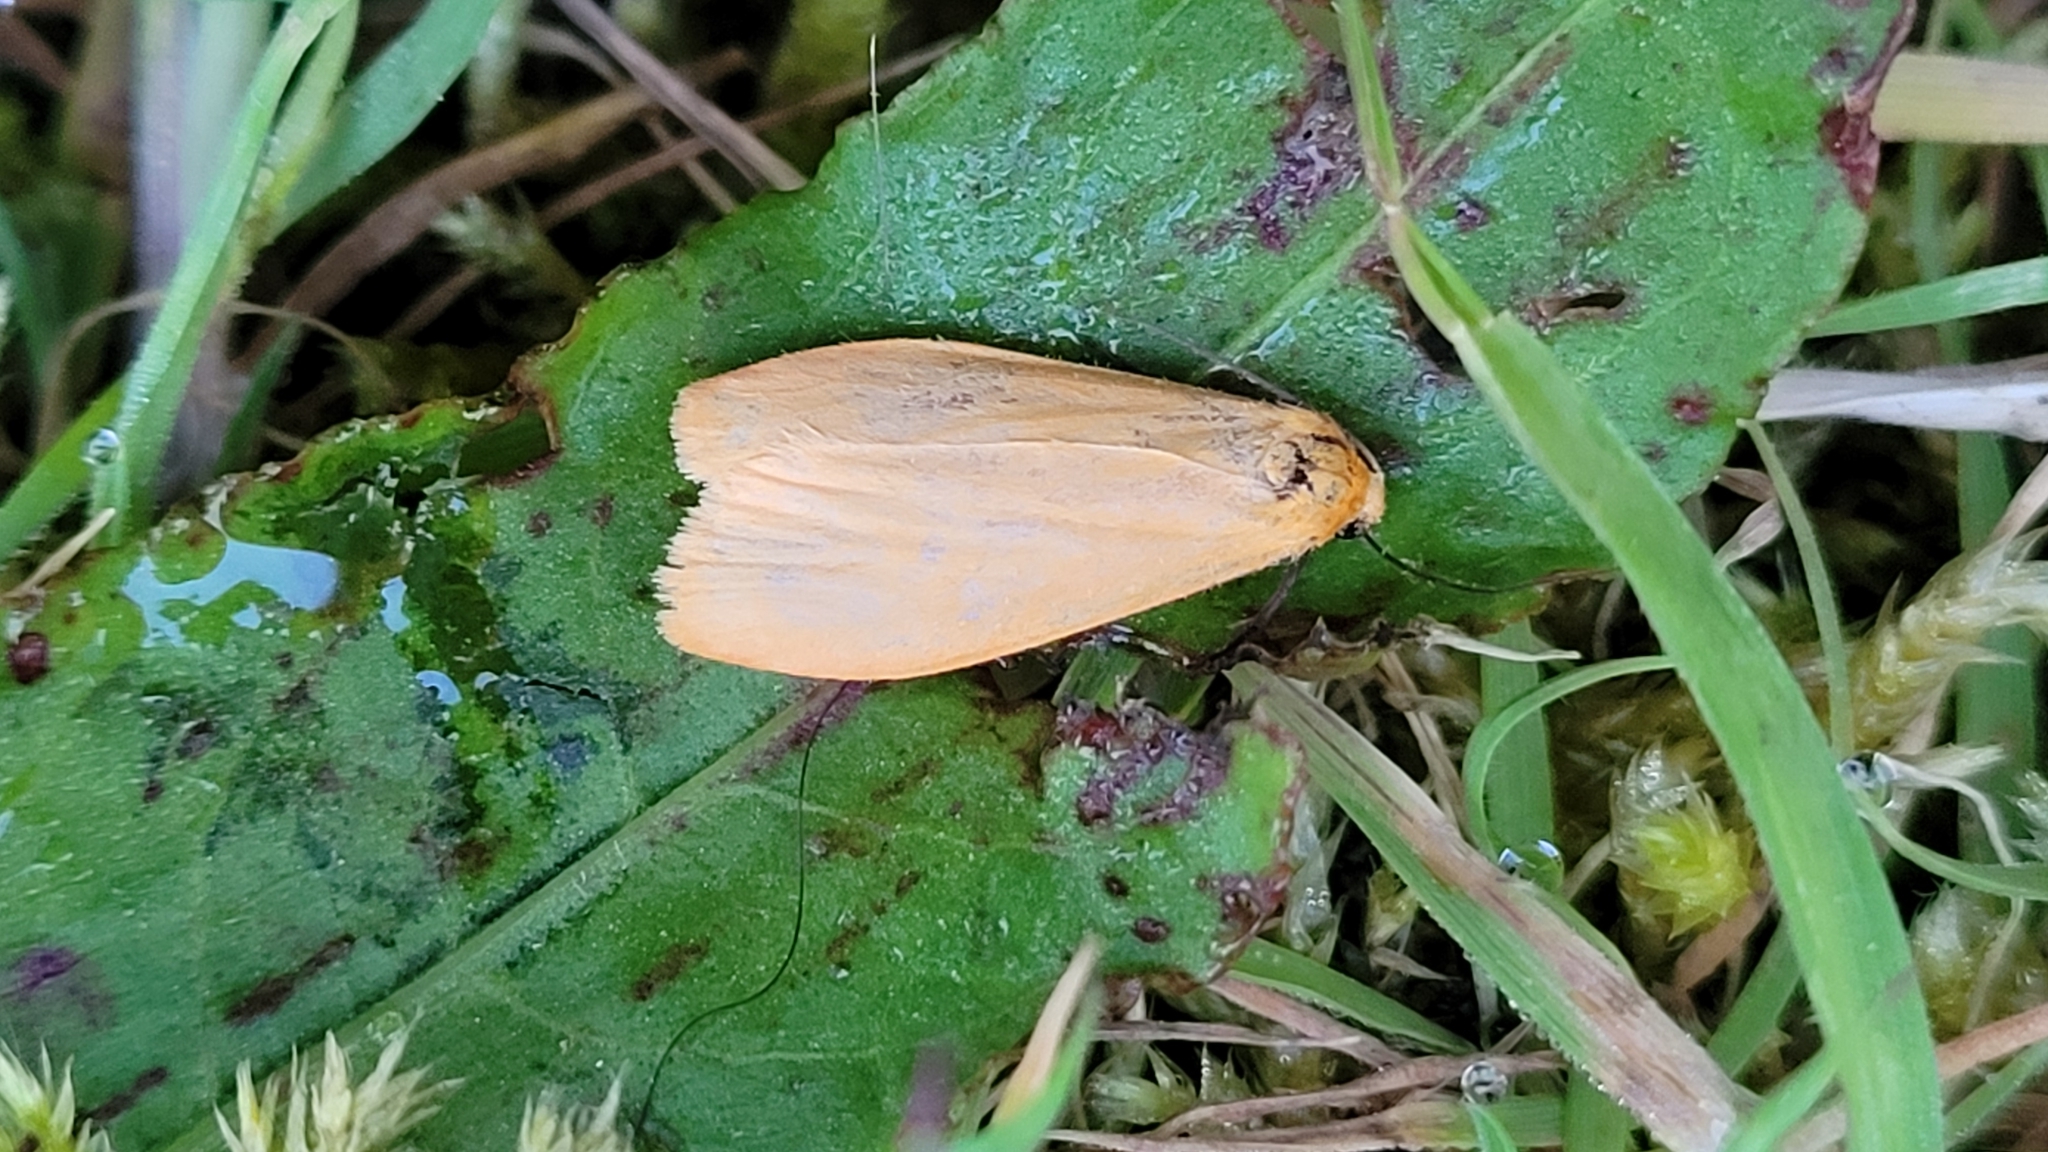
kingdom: Animalia
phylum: Arthropoda
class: Insecta
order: Lepidoptera
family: Erebidae
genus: Wittia
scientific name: Wittia sororcula
